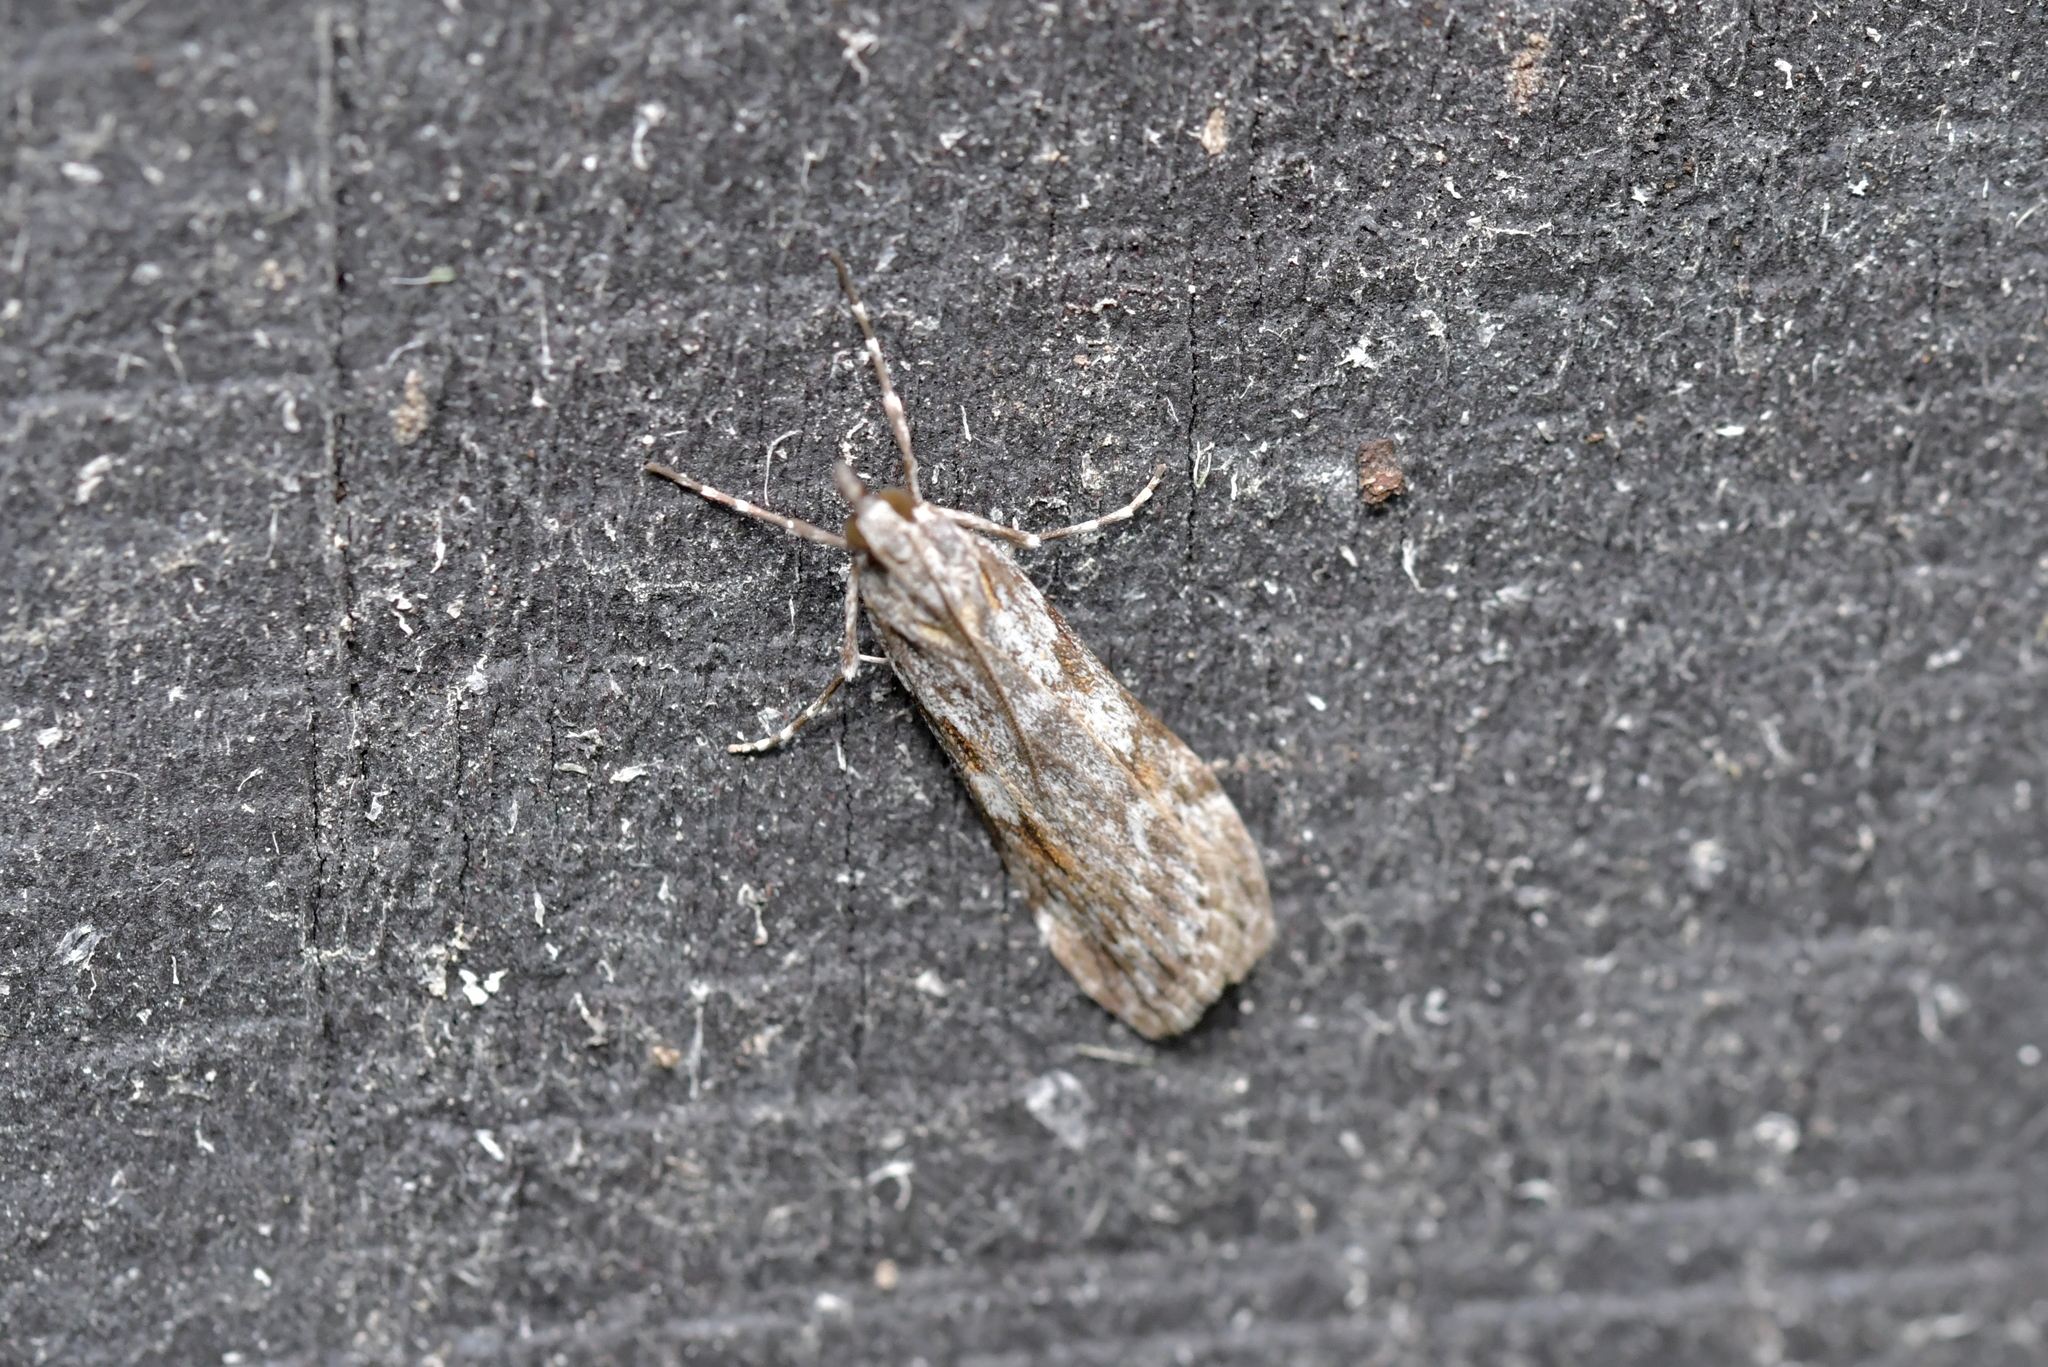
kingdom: Animalia
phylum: Arthropoda
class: Insecta
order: Lepidoptera
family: Crambidae
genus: Scoparia
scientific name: Scoparia halopis
